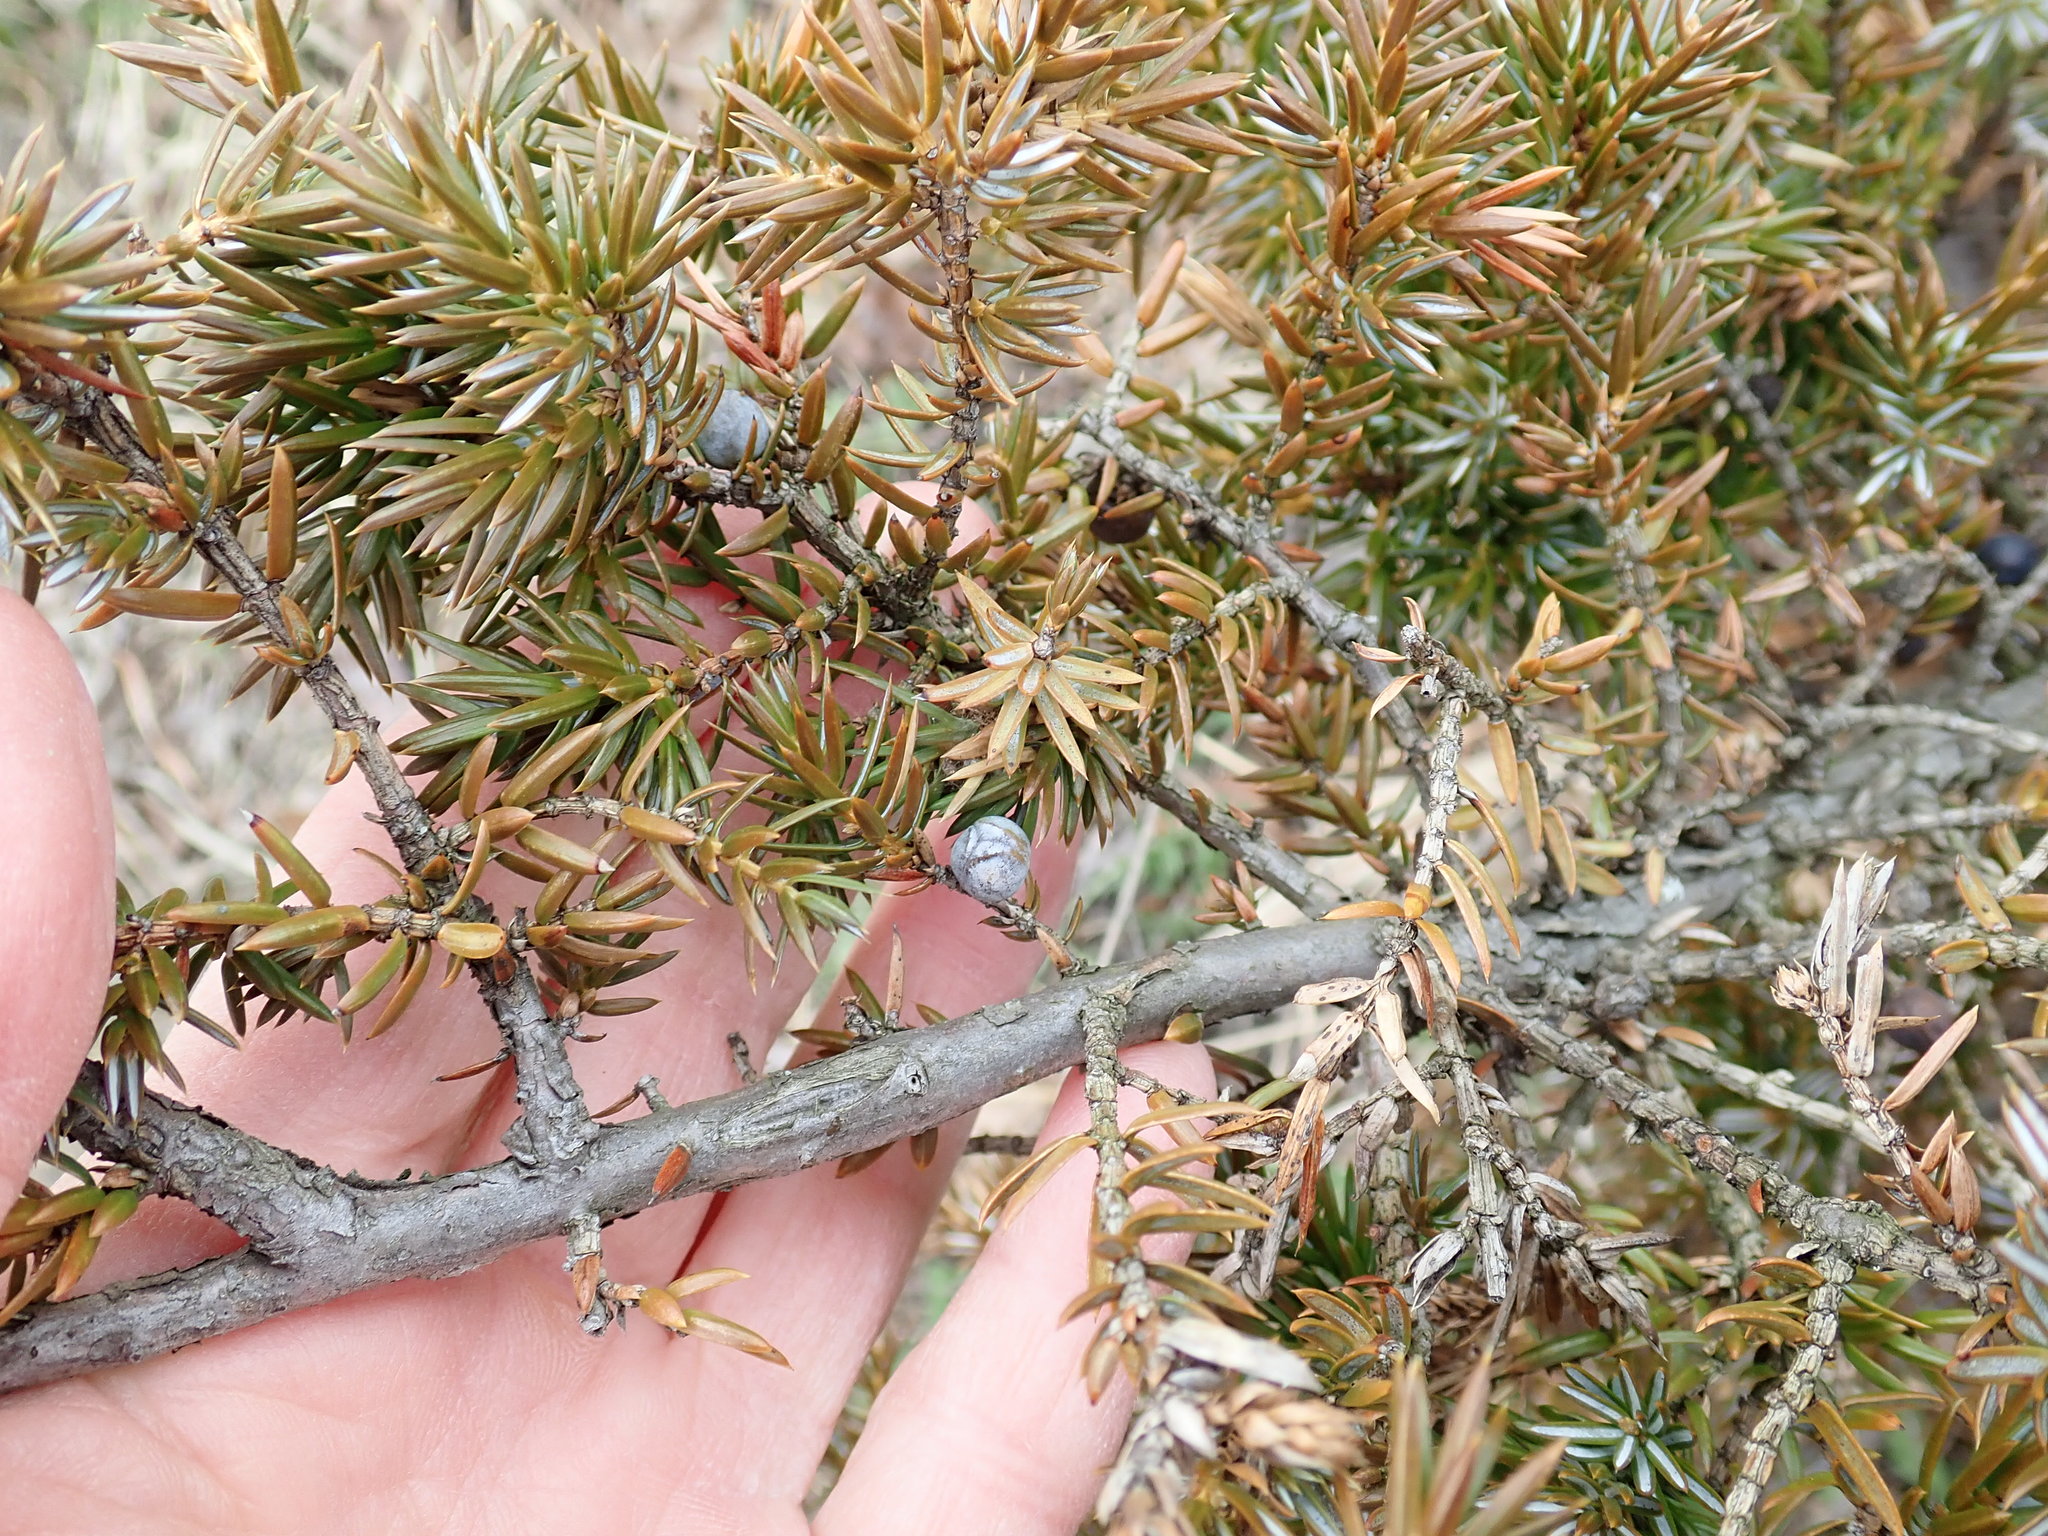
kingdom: Plantae
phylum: Tracheophyta
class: Pinopsida
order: Pinales
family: Cupressaceae
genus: Juniperus
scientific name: Juniperus communis
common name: Common juniper
